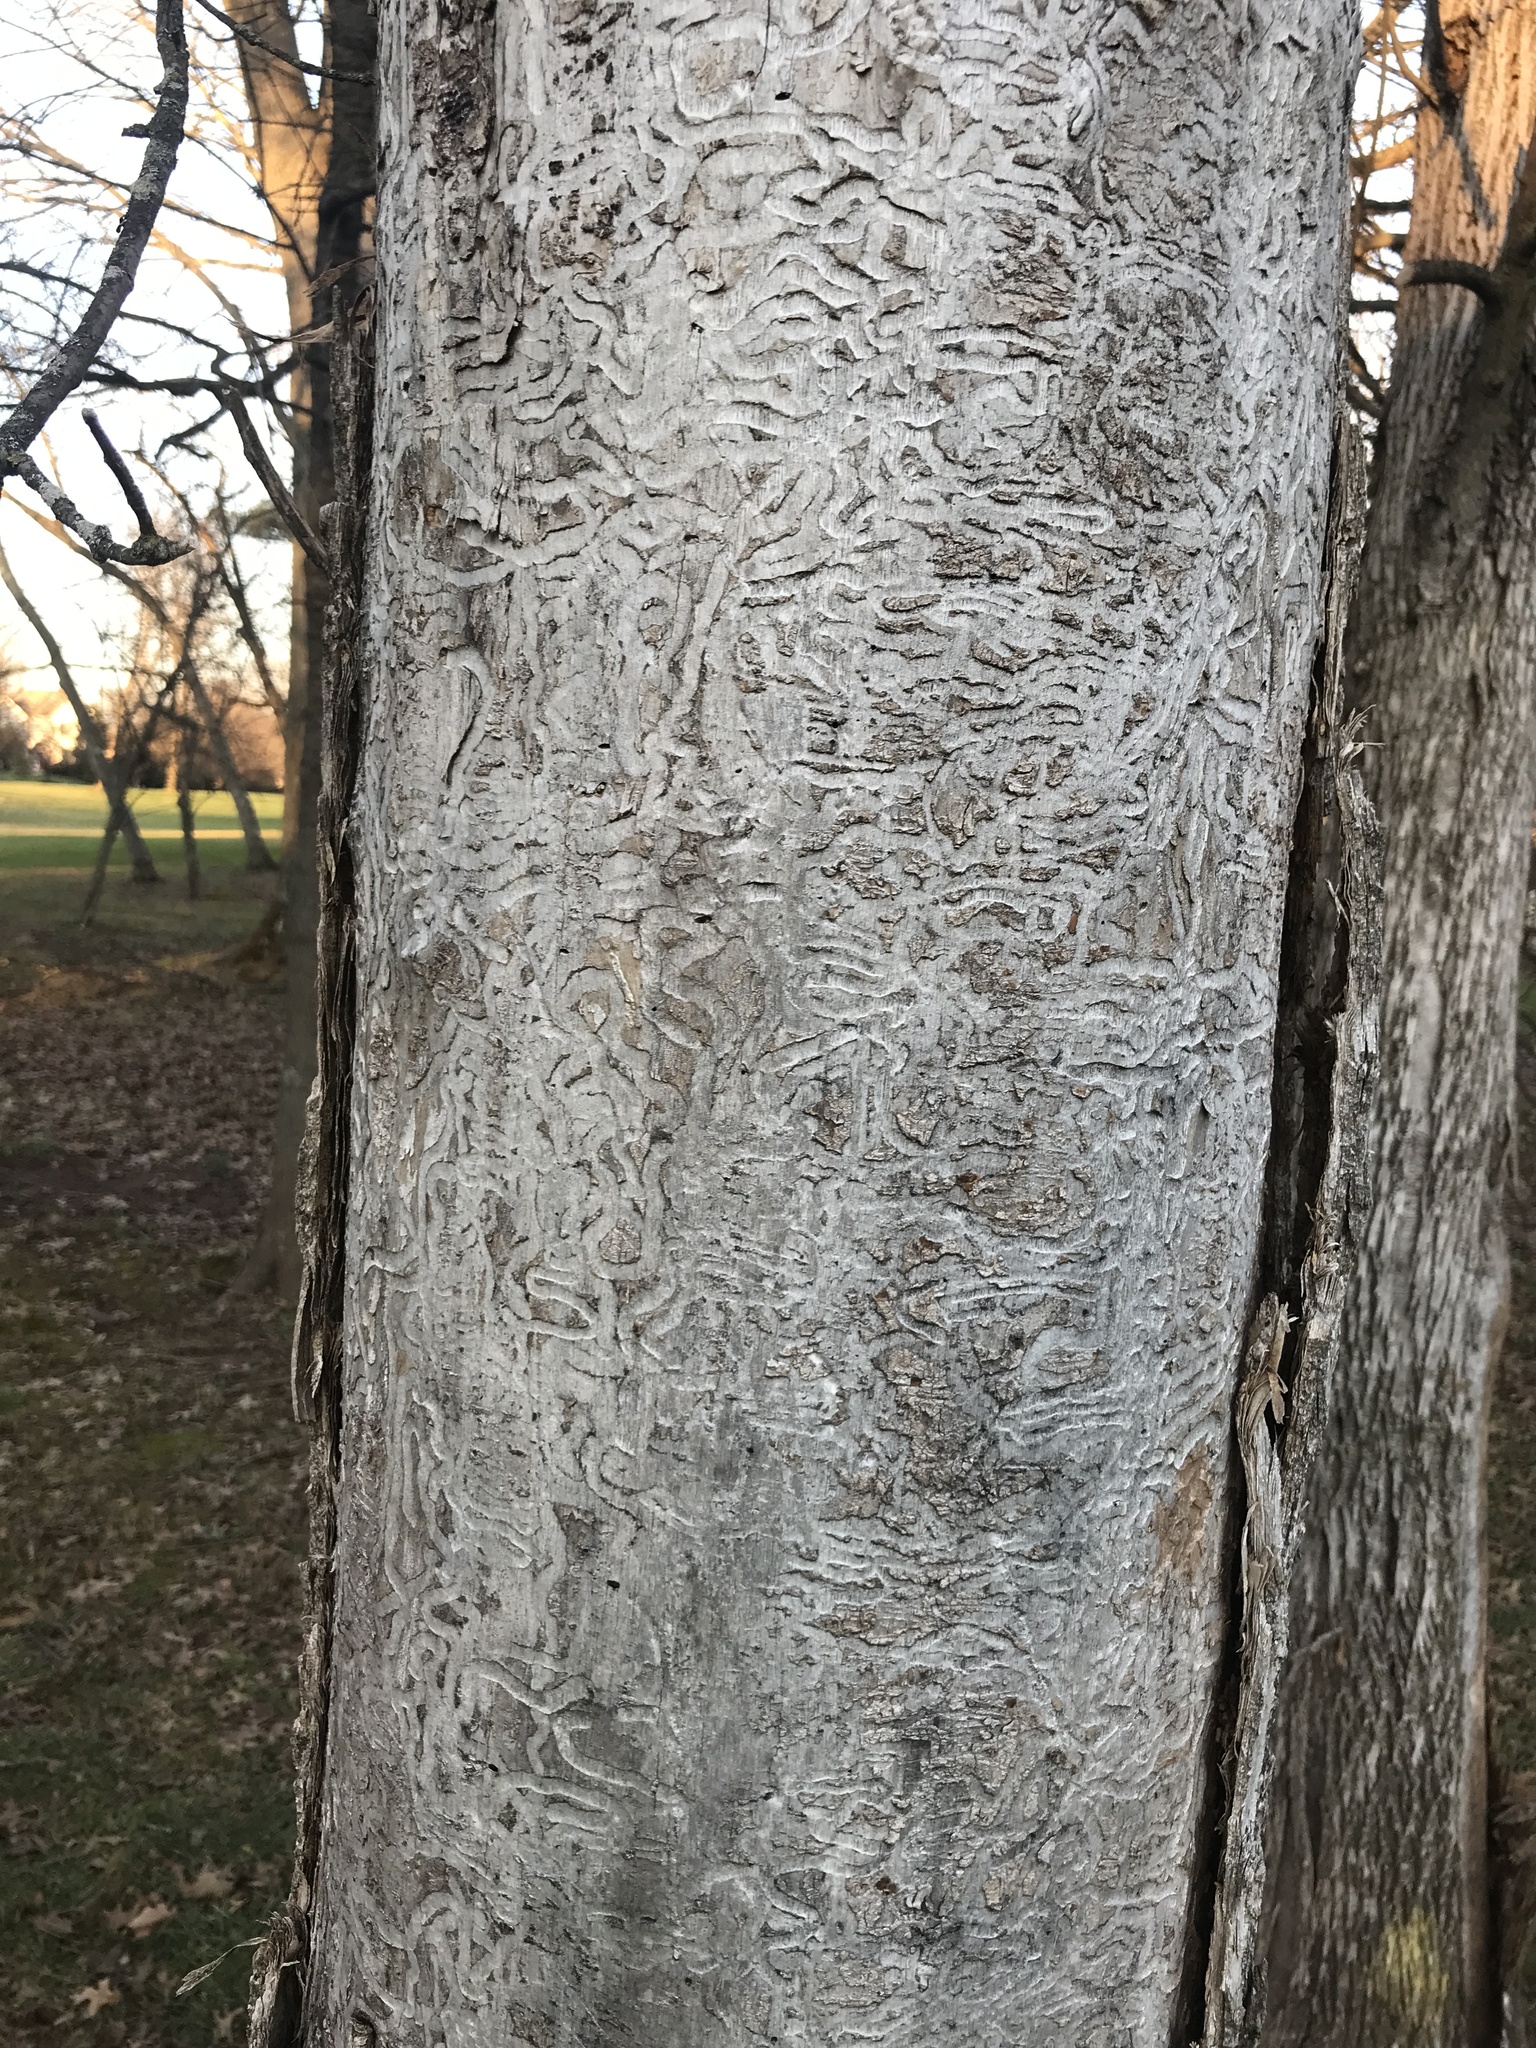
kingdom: Animalia
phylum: Arthropoda
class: Insecta
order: Coleoptera
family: Buprestidae
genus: Agrilus
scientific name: Agrilus planipennis
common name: Emerald ash borer
